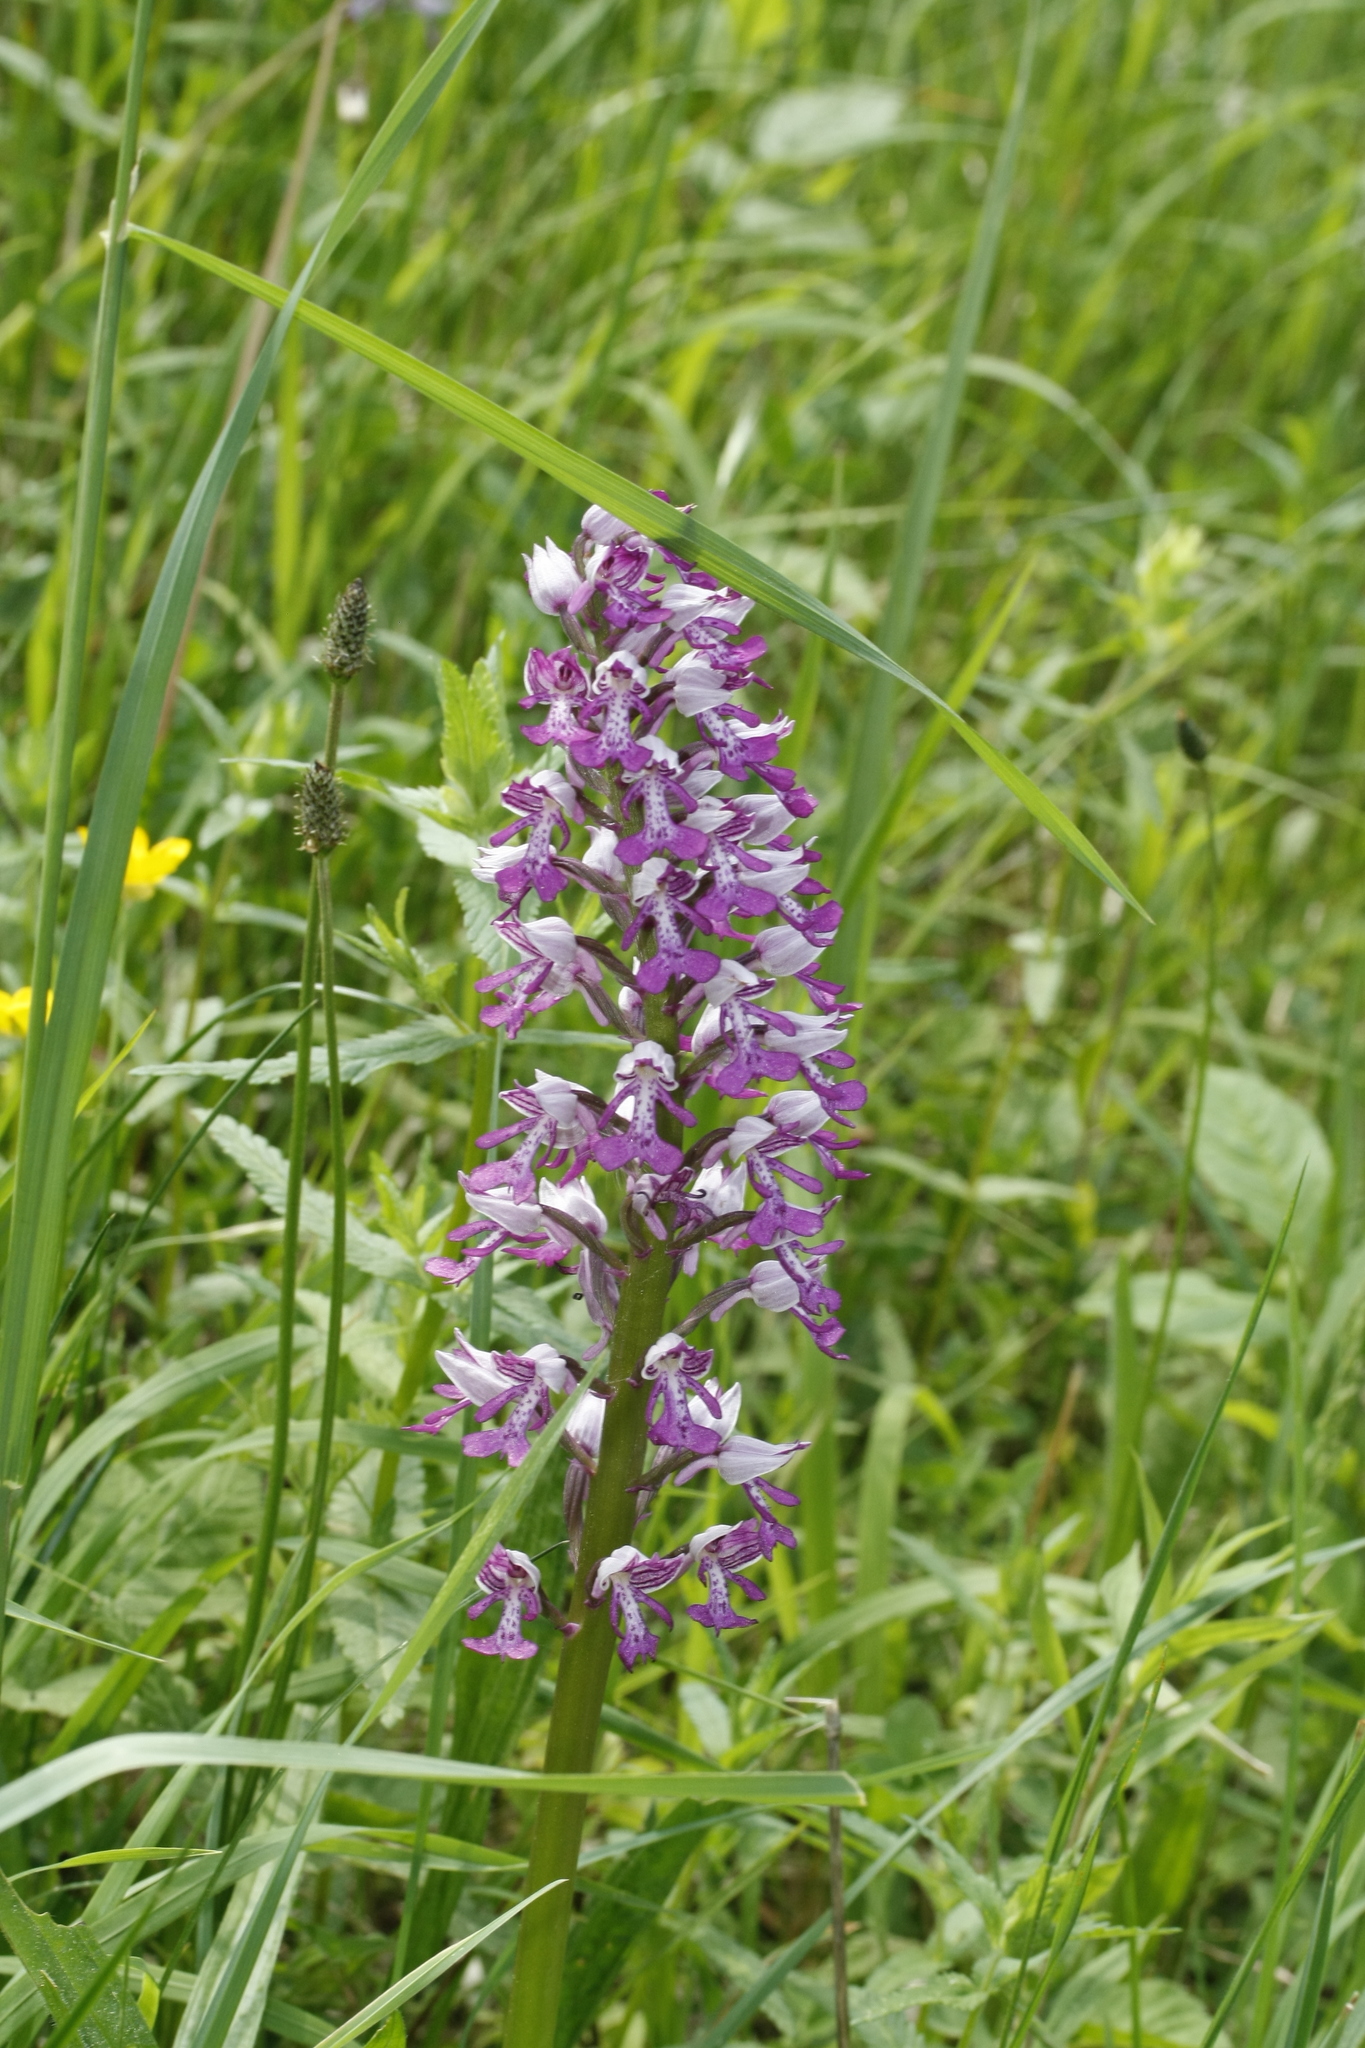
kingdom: Plantae
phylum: Tracheophyta
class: Liliopsida
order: Asparagales
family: Orchidaceae
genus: Orchis
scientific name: Orchis militaris
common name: Military orchid
